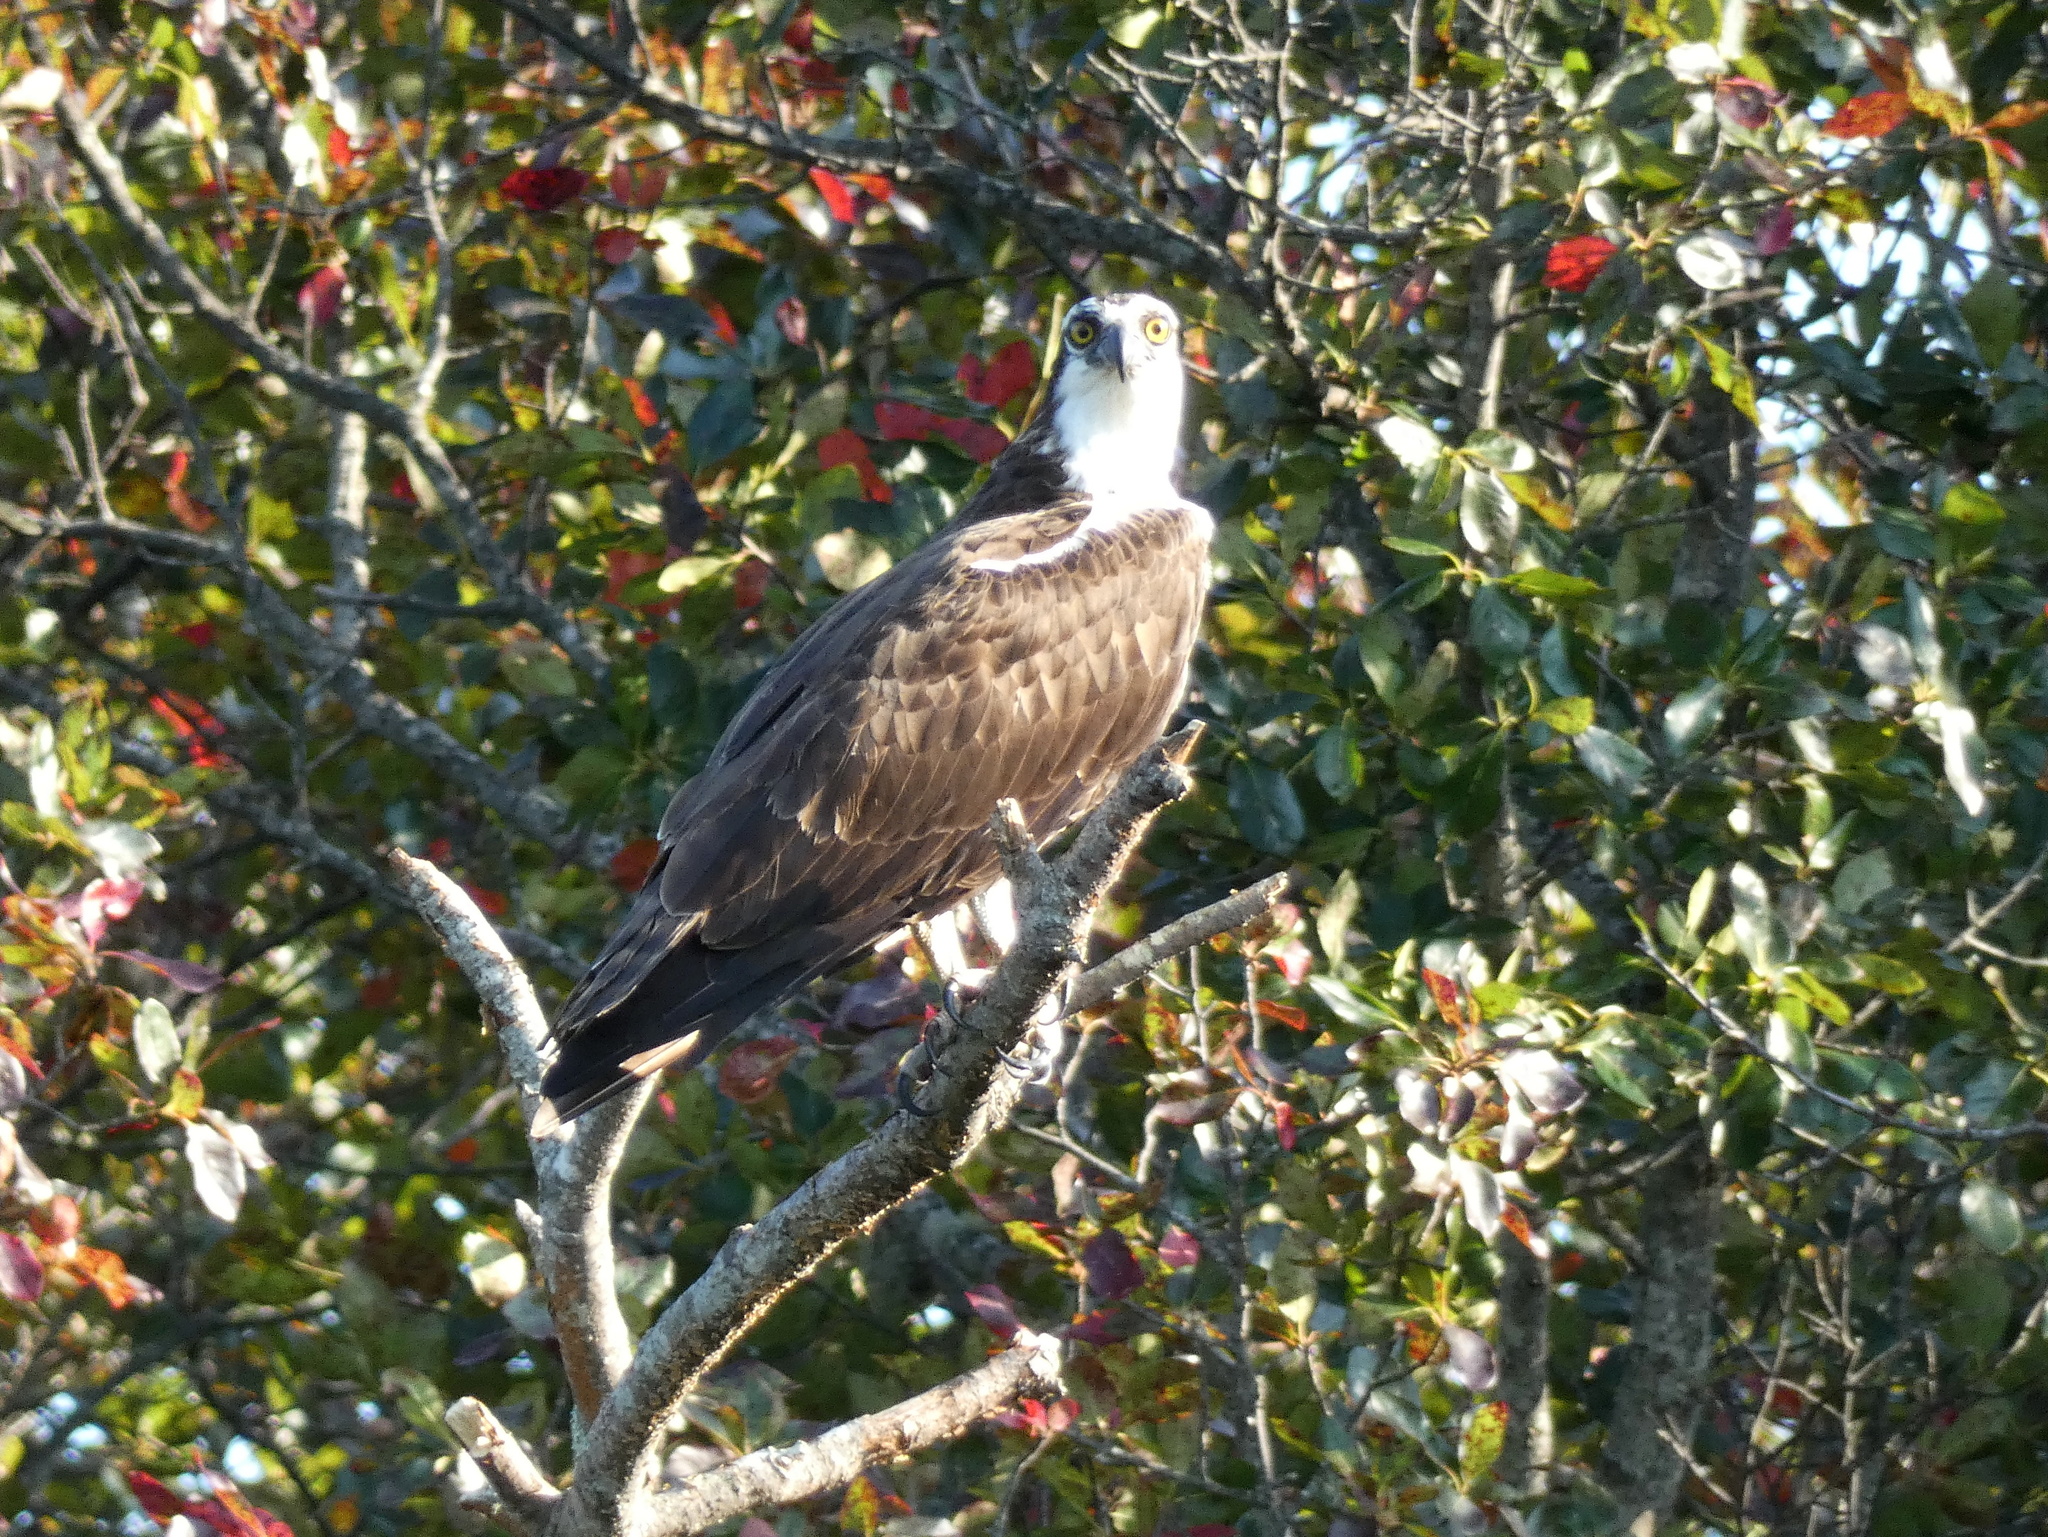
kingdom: Animalia
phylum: Chordata
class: Aves
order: Accipitriformes
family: Pandionidae
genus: Pandion
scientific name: Pandion haliaetus
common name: Osprey
